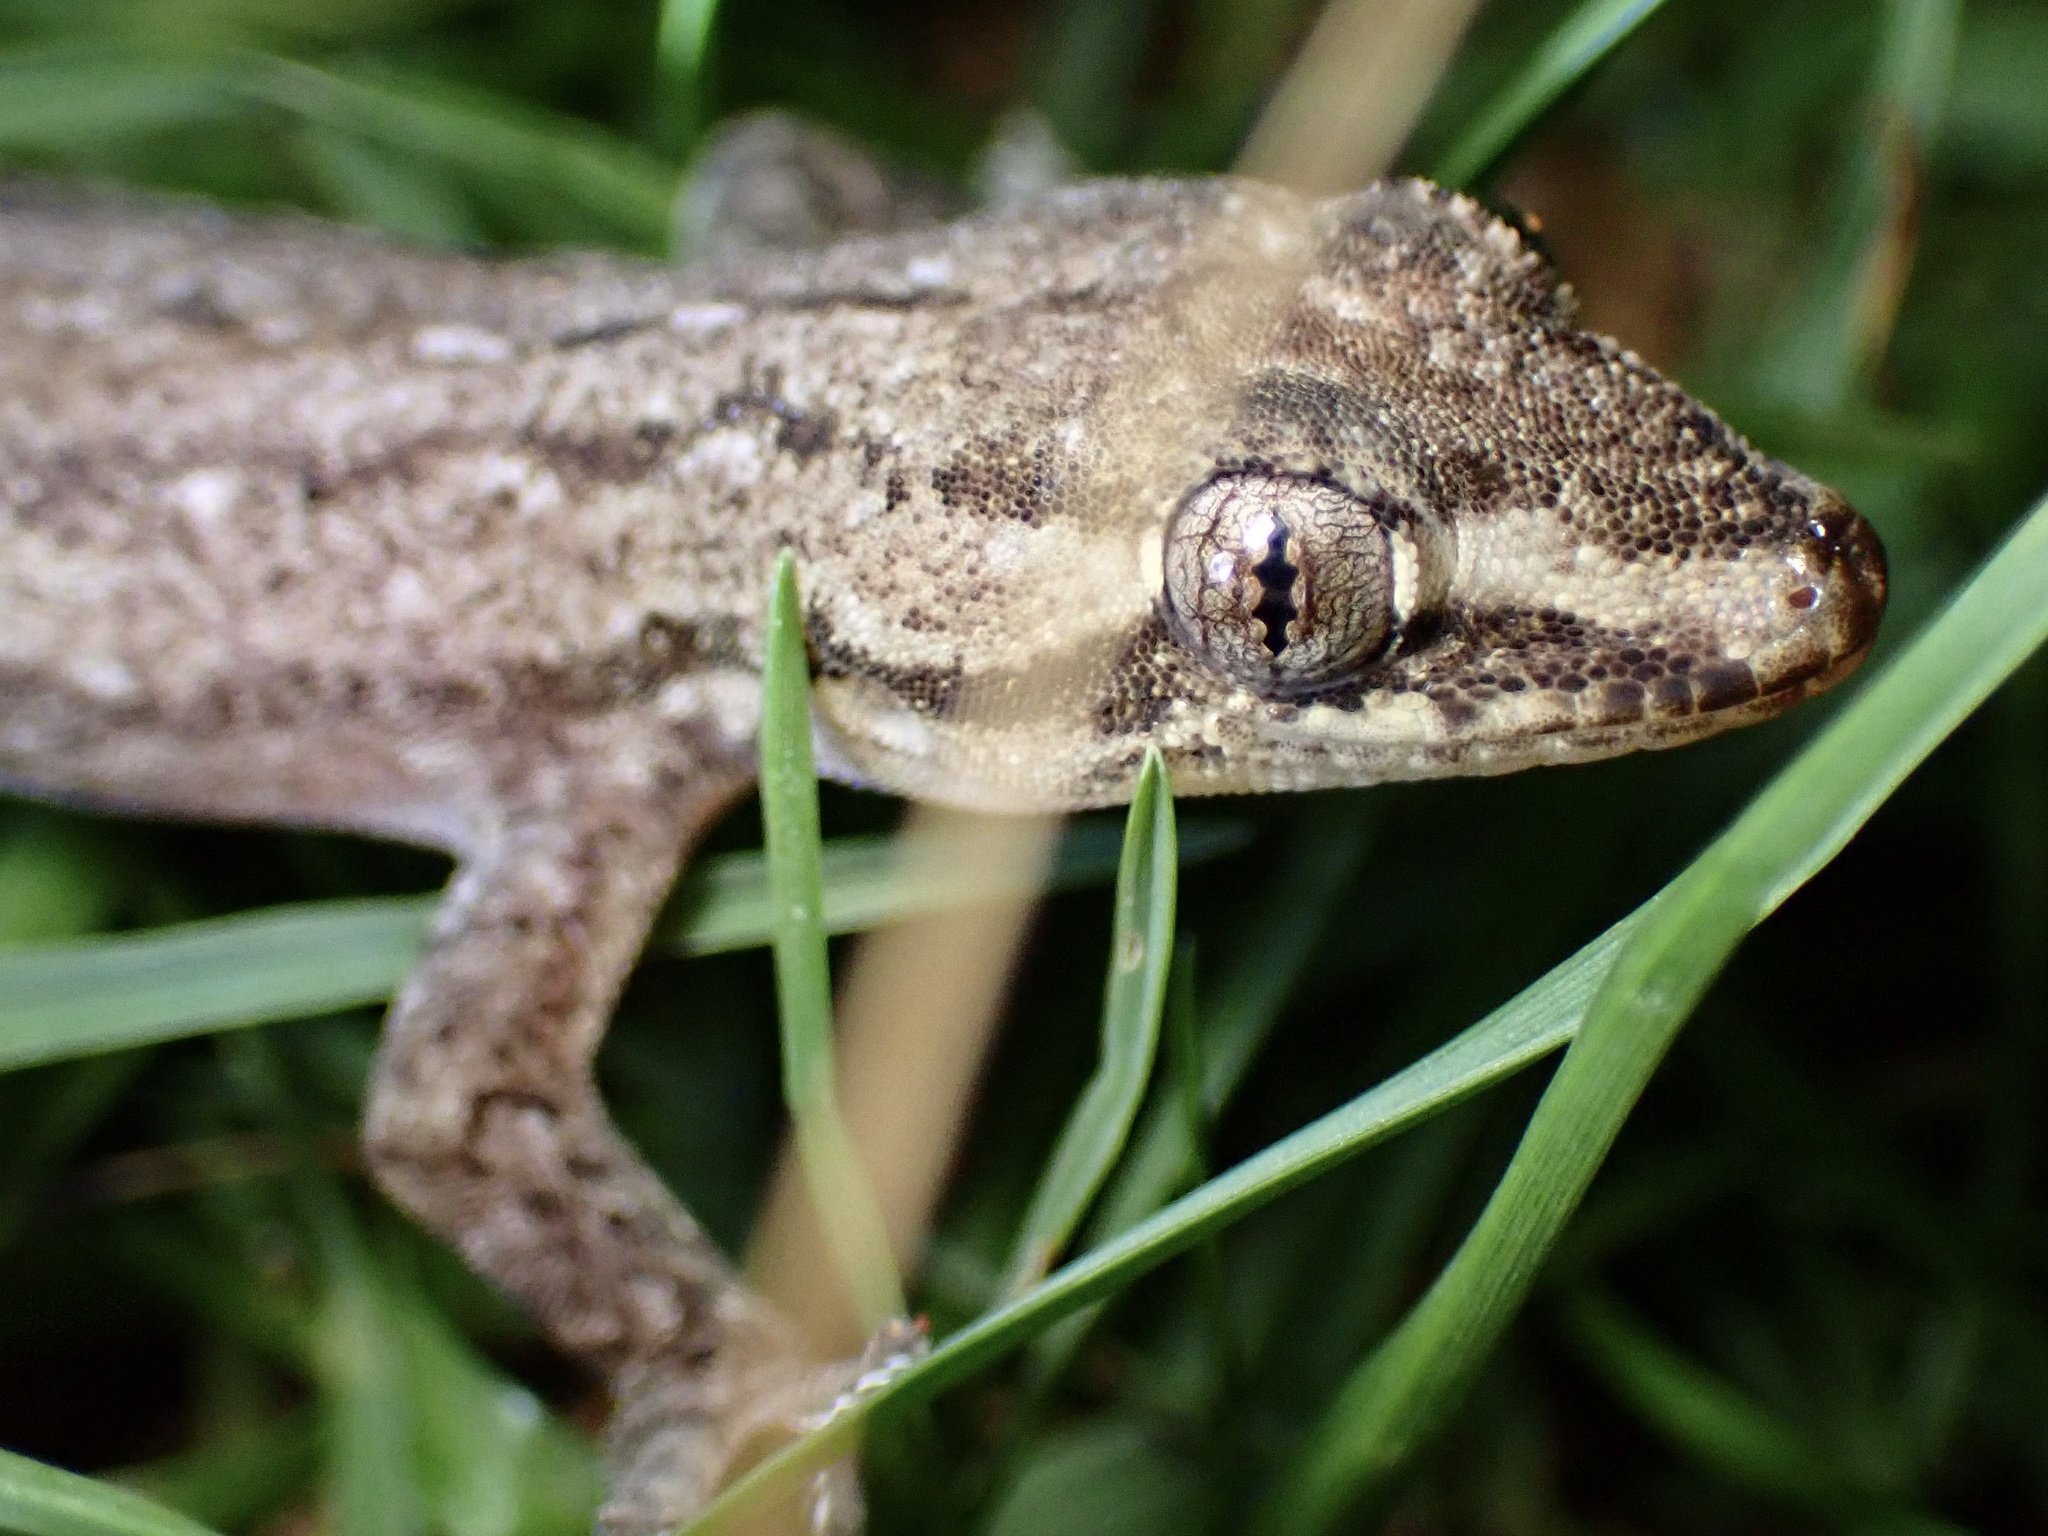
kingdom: Animalia
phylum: Chordata
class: Squamata
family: Gekkonidae
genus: Hemidactylus
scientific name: Hemidactylus frenatus
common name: Common house gecko
